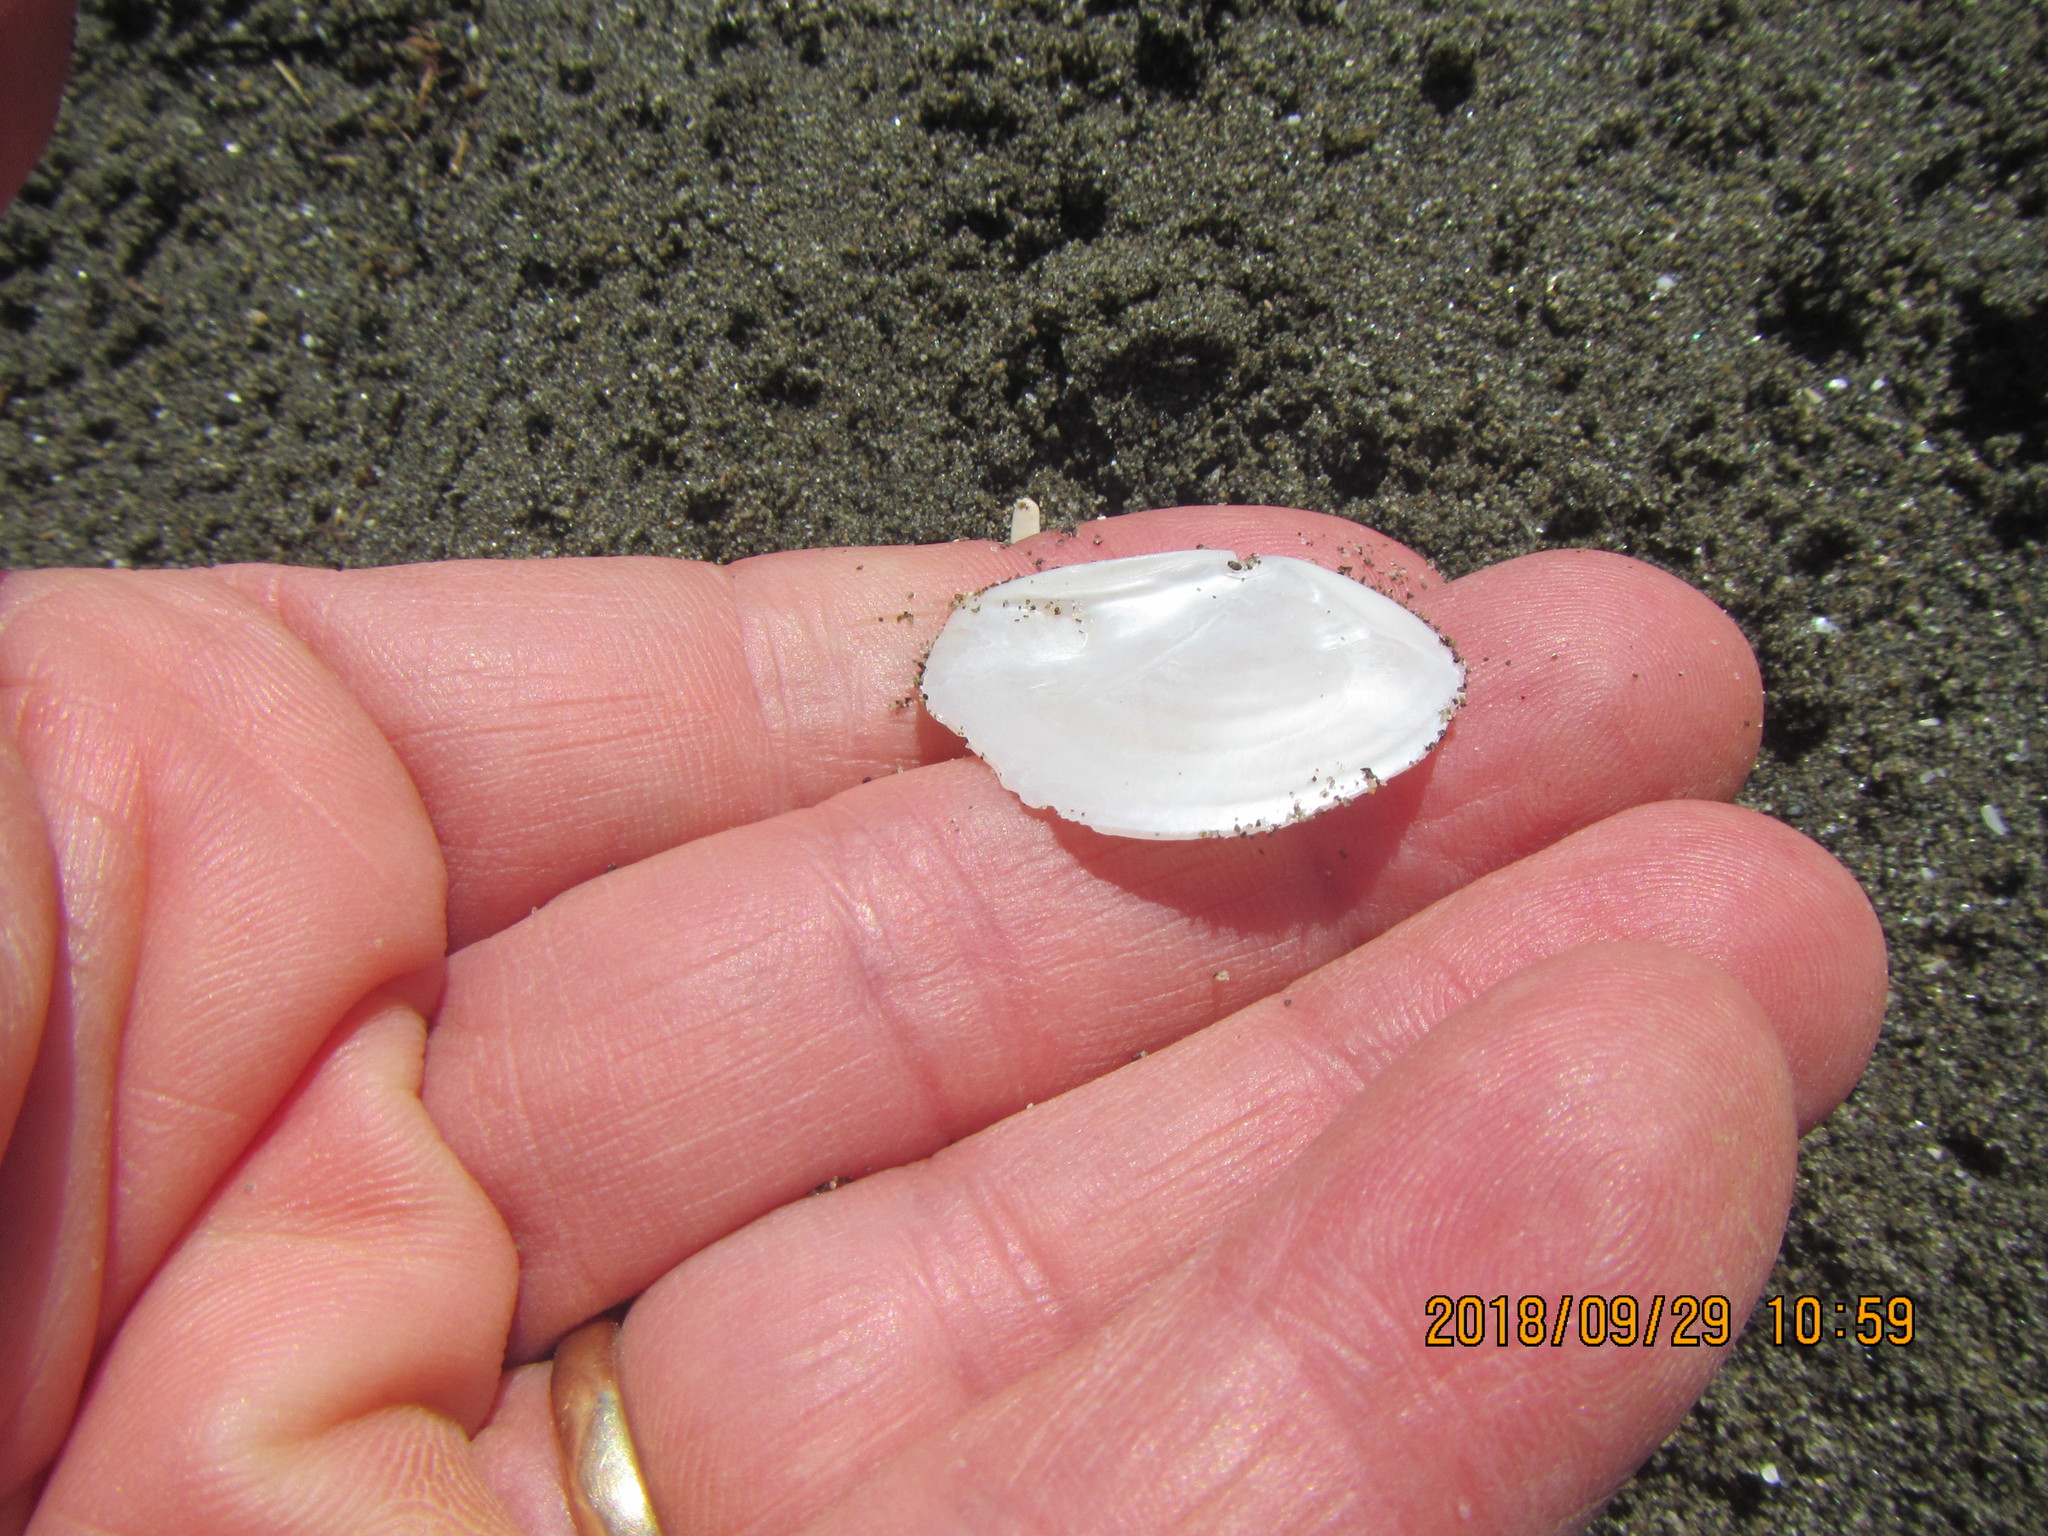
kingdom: Animalia
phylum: Mollusca
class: Bivalvia
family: Myochamidae
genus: Myadora
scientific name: Myadora striata
